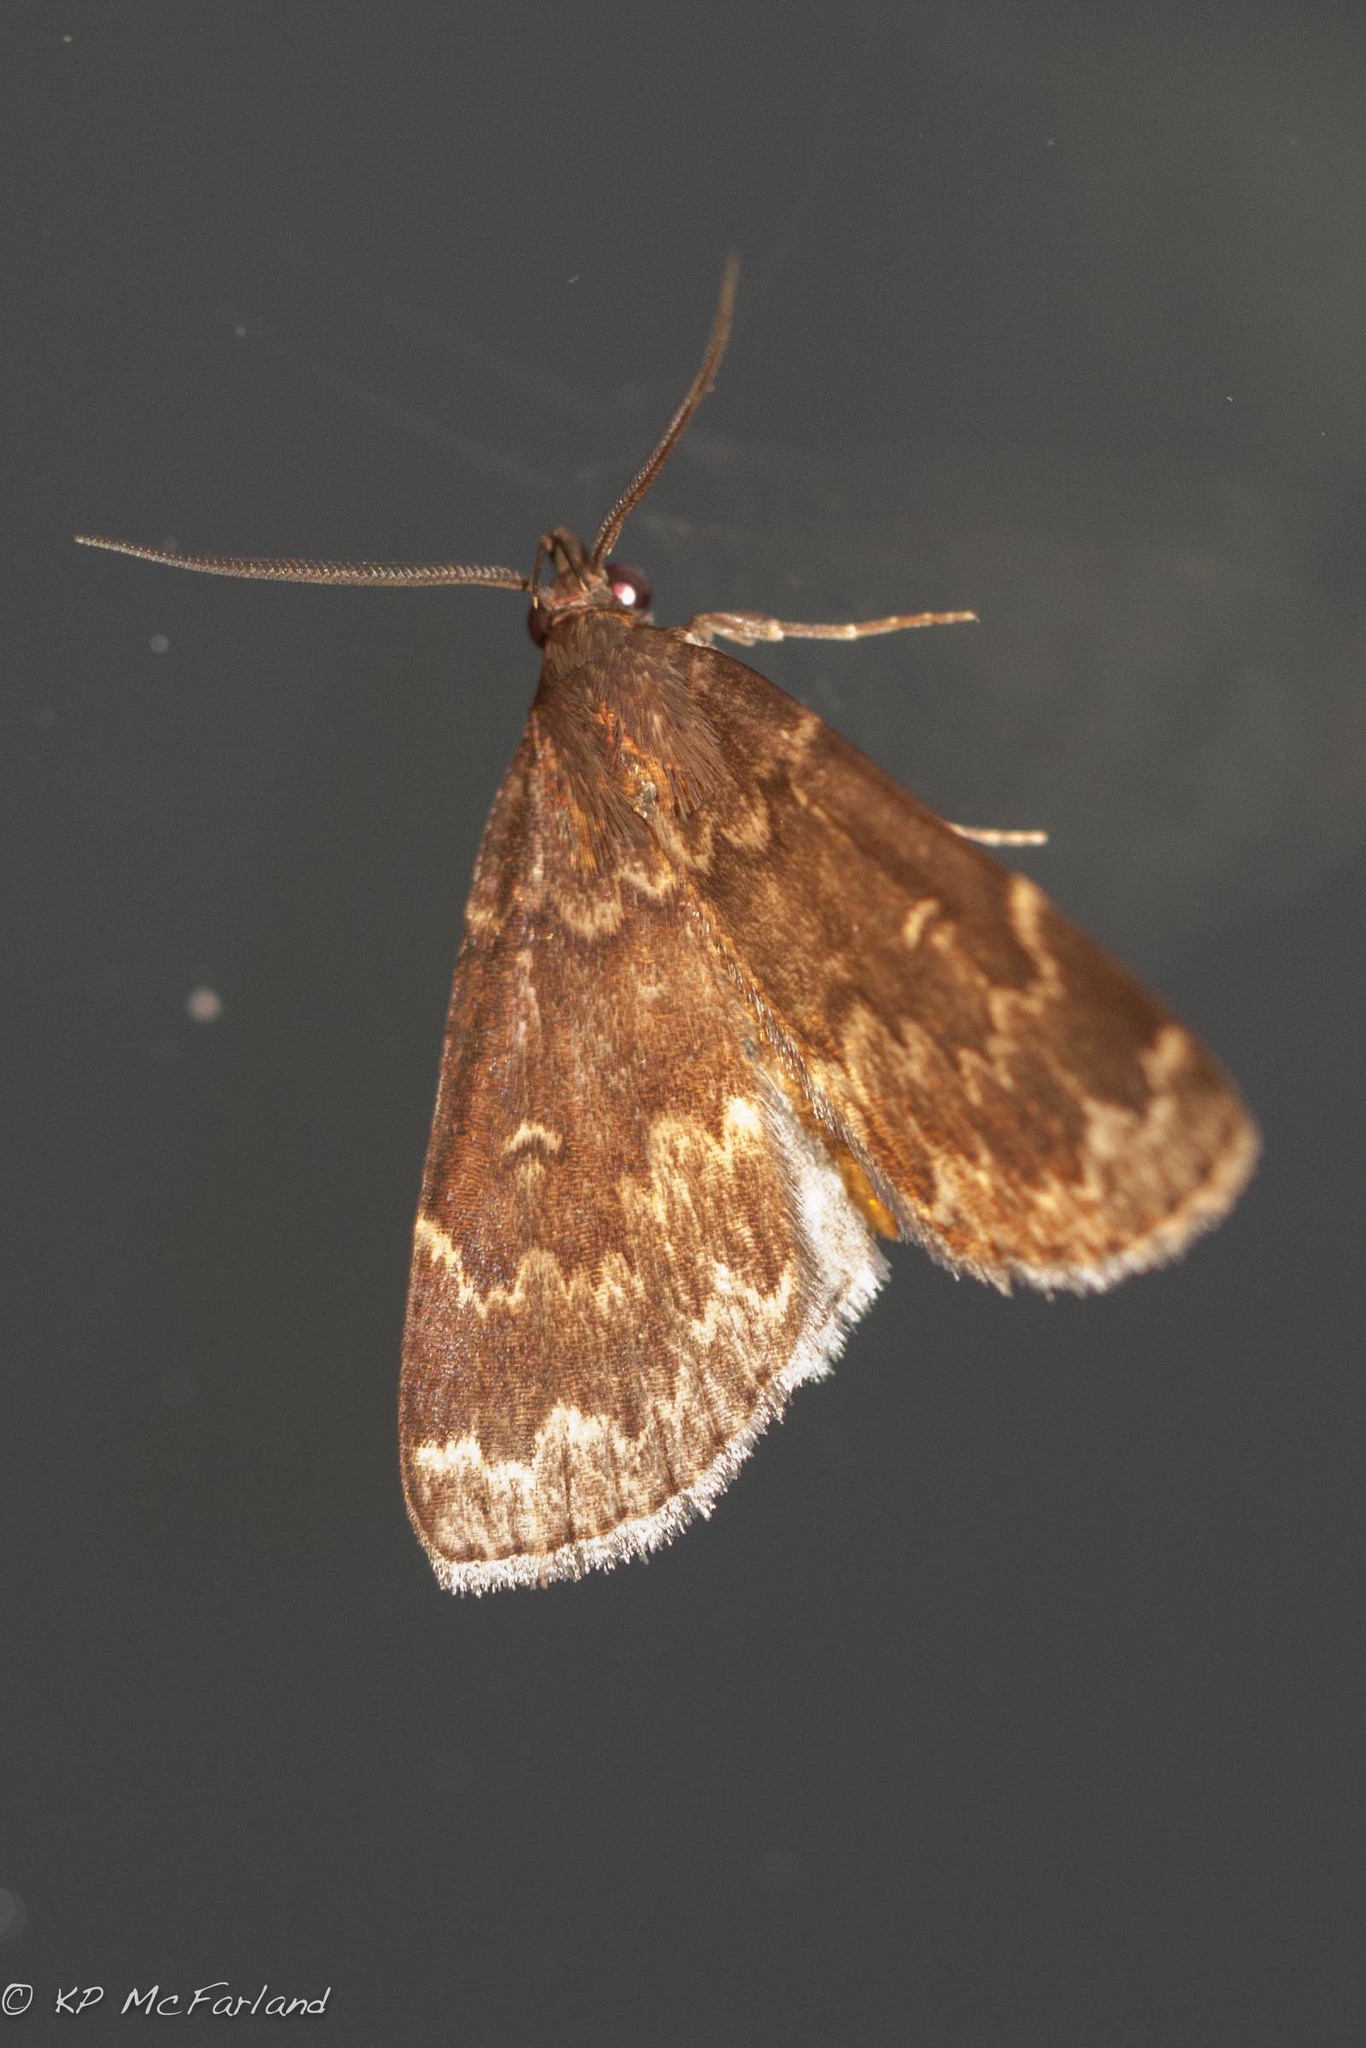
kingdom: Animalia
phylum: Arthropoda
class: Insecta
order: Lepidoptera
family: Erebidae
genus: Idia
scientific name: Idia lubricalis
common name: Twin-striped tabby
